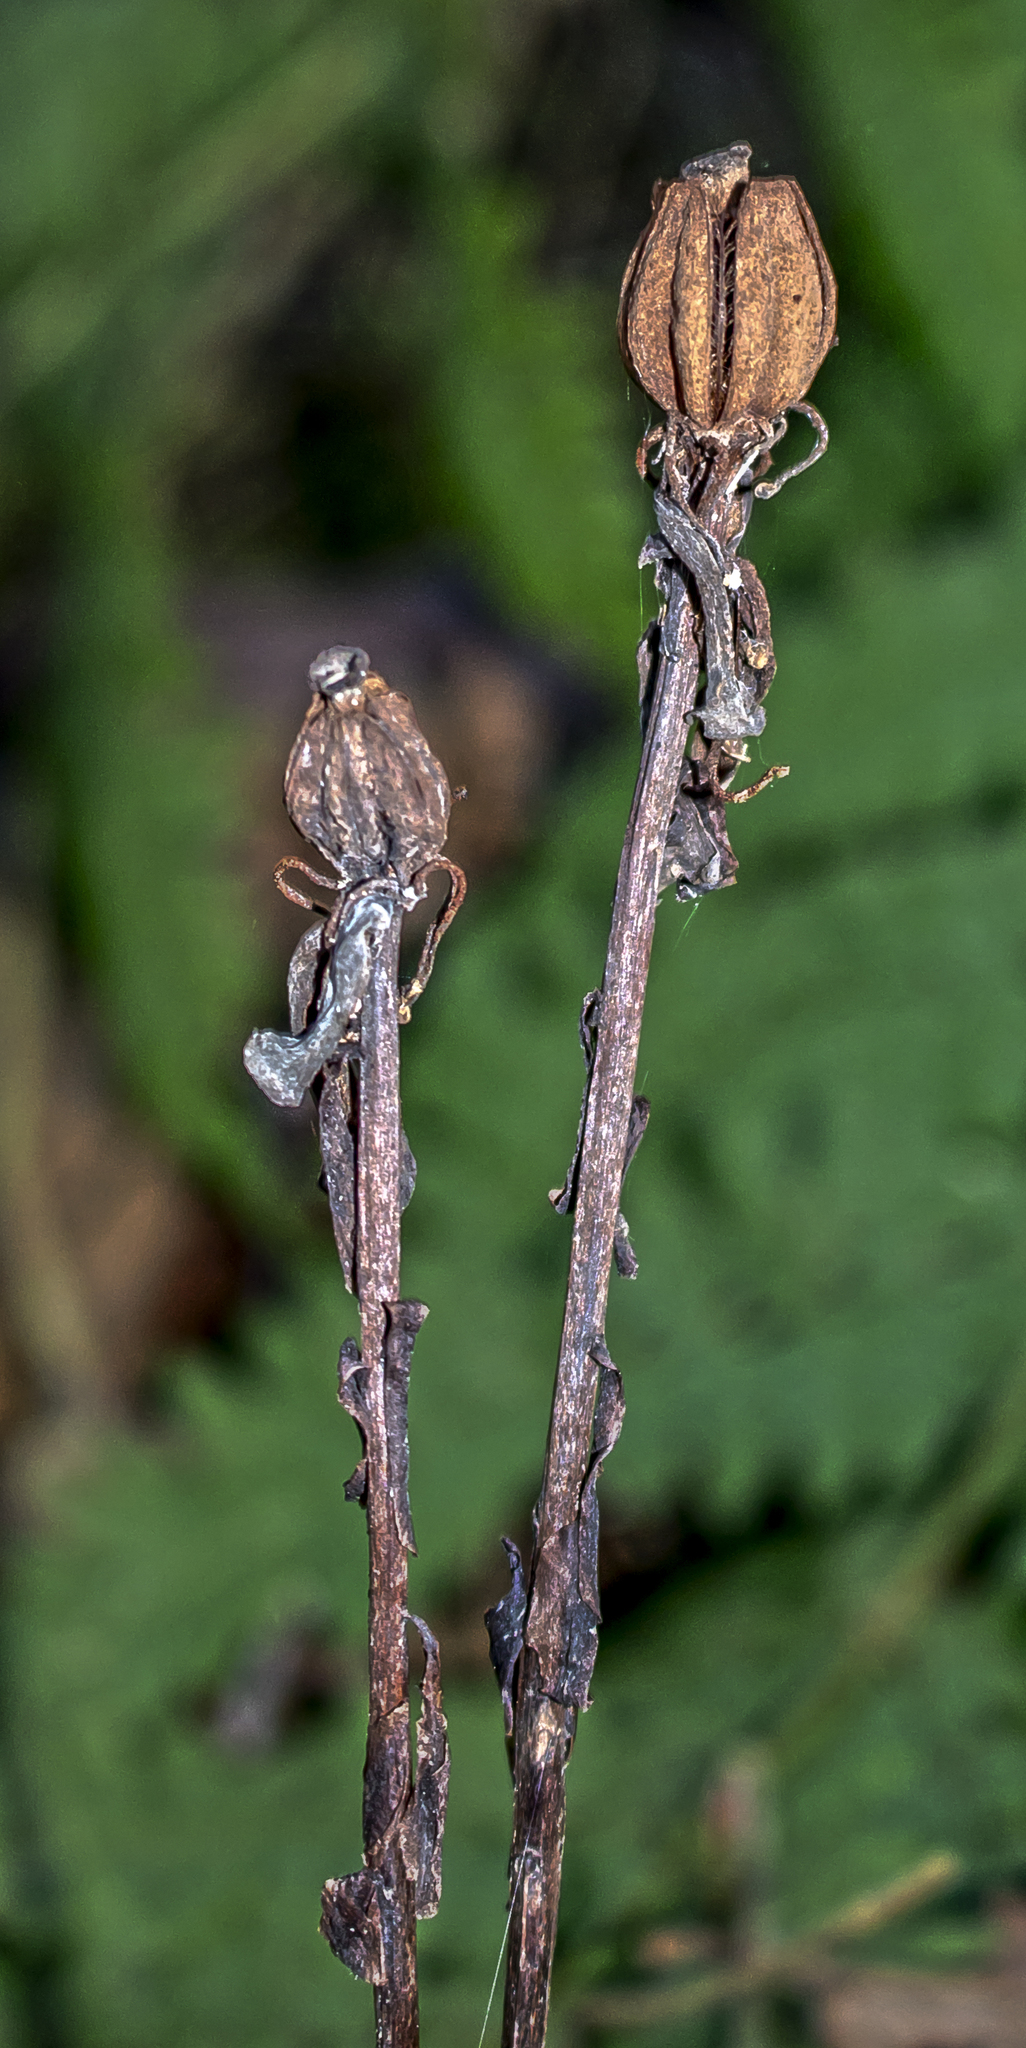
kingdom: Plantae
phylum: Tracheophyta
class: Magnoliopsida
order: Ericales
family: Ericaceae
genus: Monotropa
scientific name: Monotropa uniflora
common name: Convulsion root
